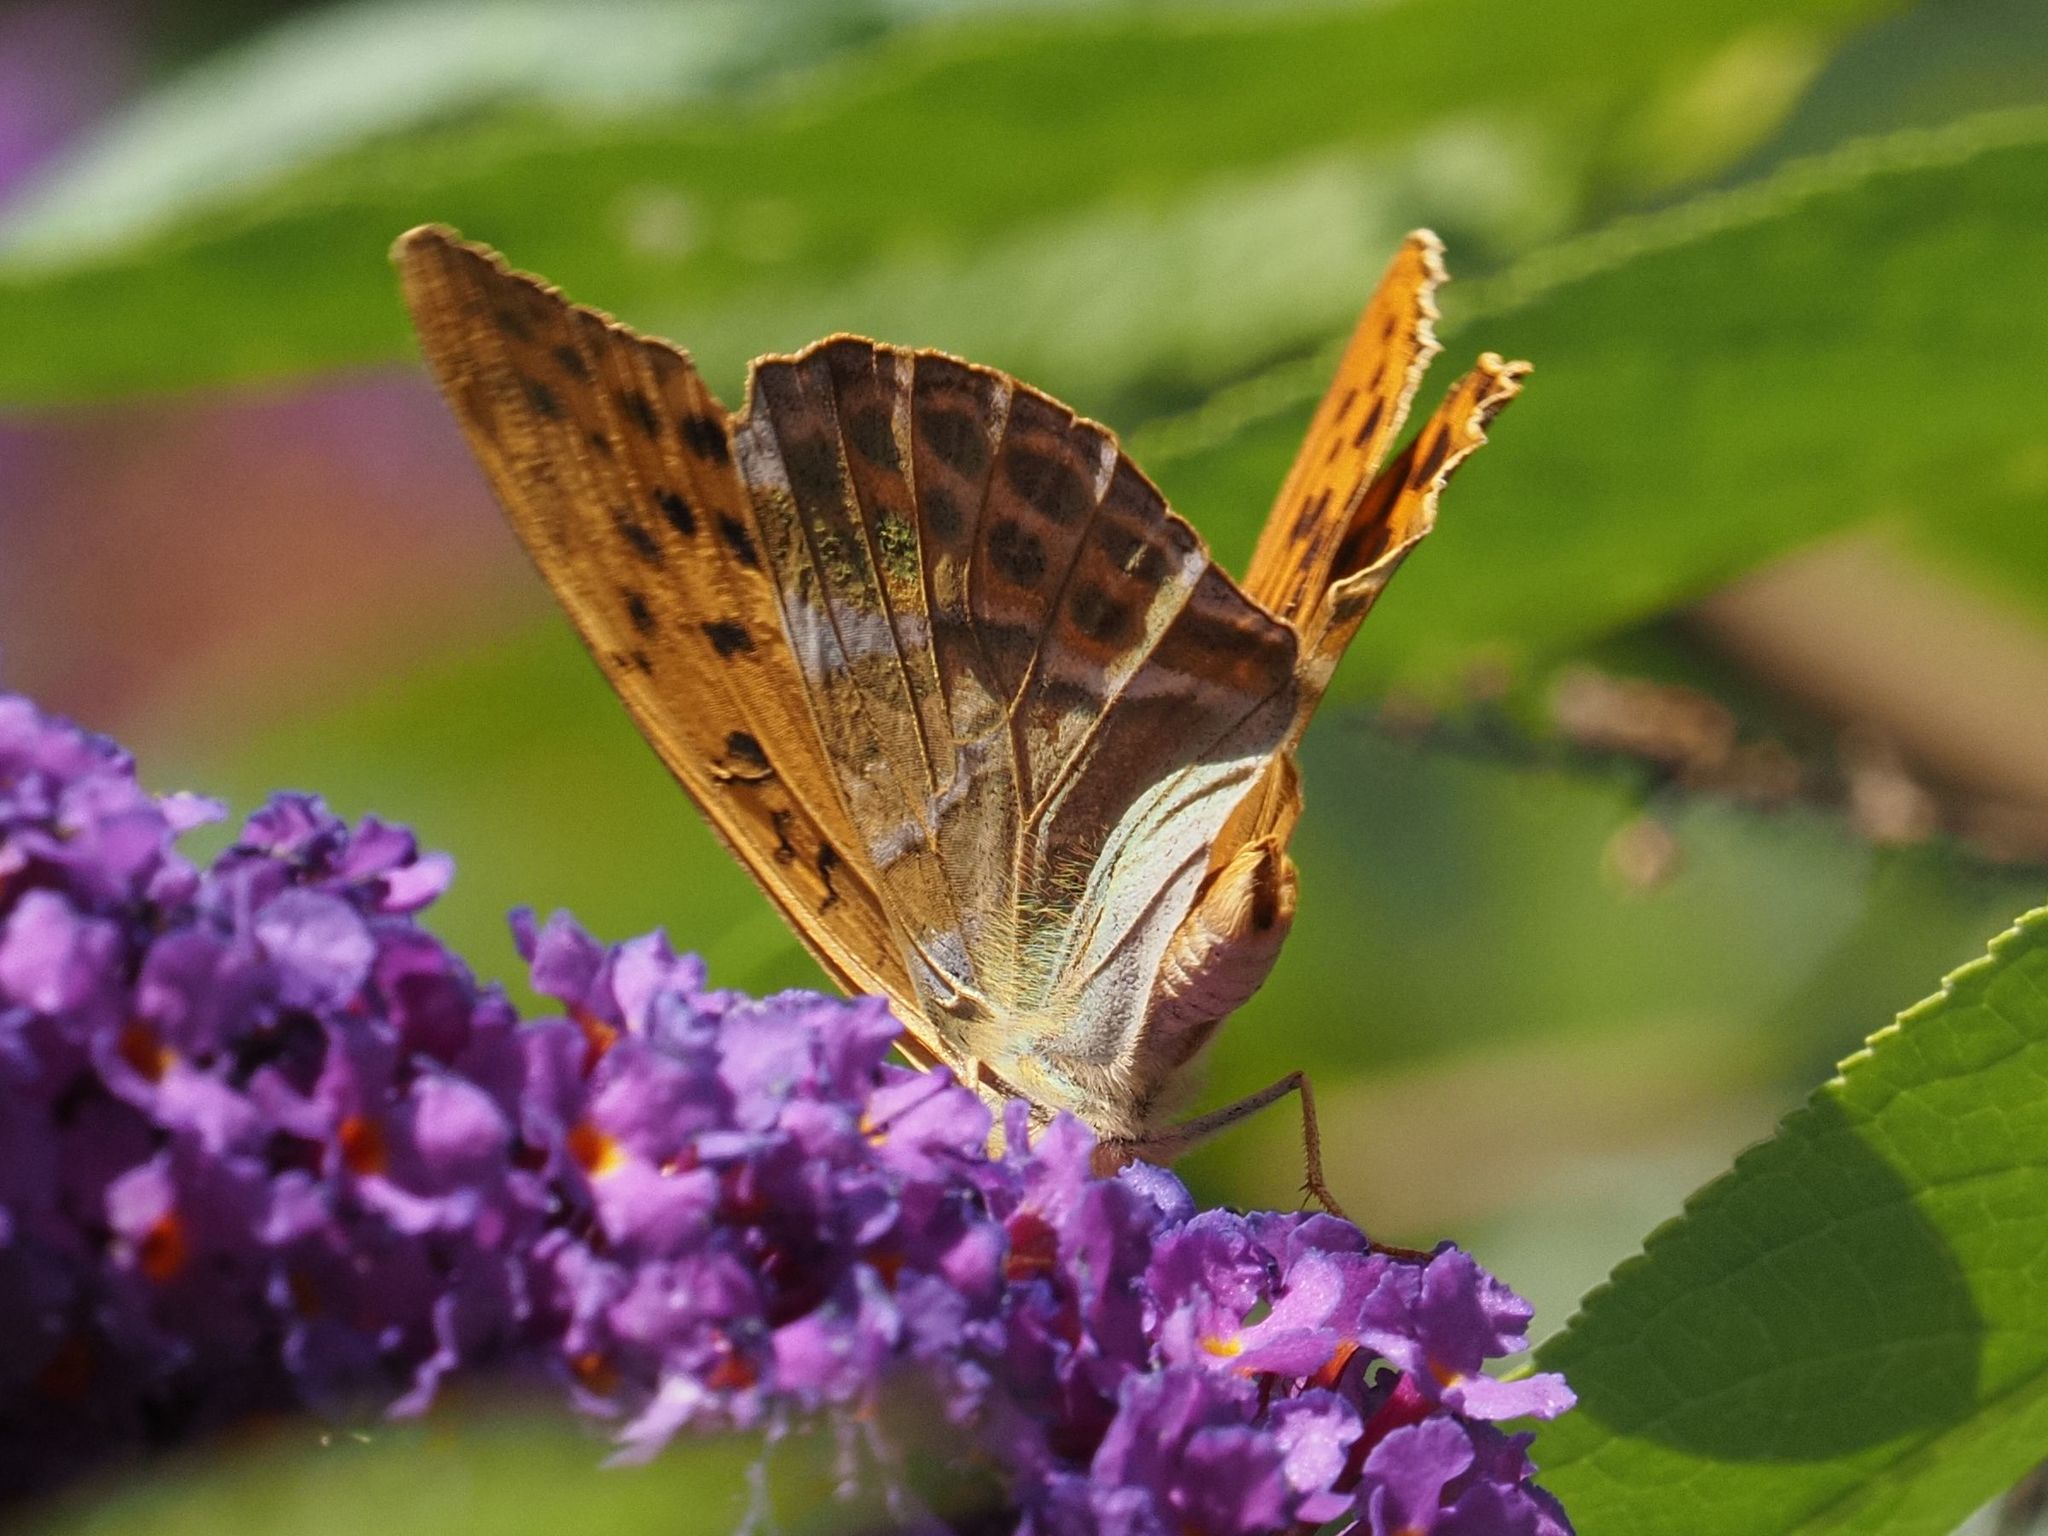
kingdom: Animalia
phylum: Arthropoda
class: Insecta
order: Lepidoptera
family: Nymphalidae
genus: Argynnis
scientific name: Argynnis paphia
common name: Silver-washed fritillary
